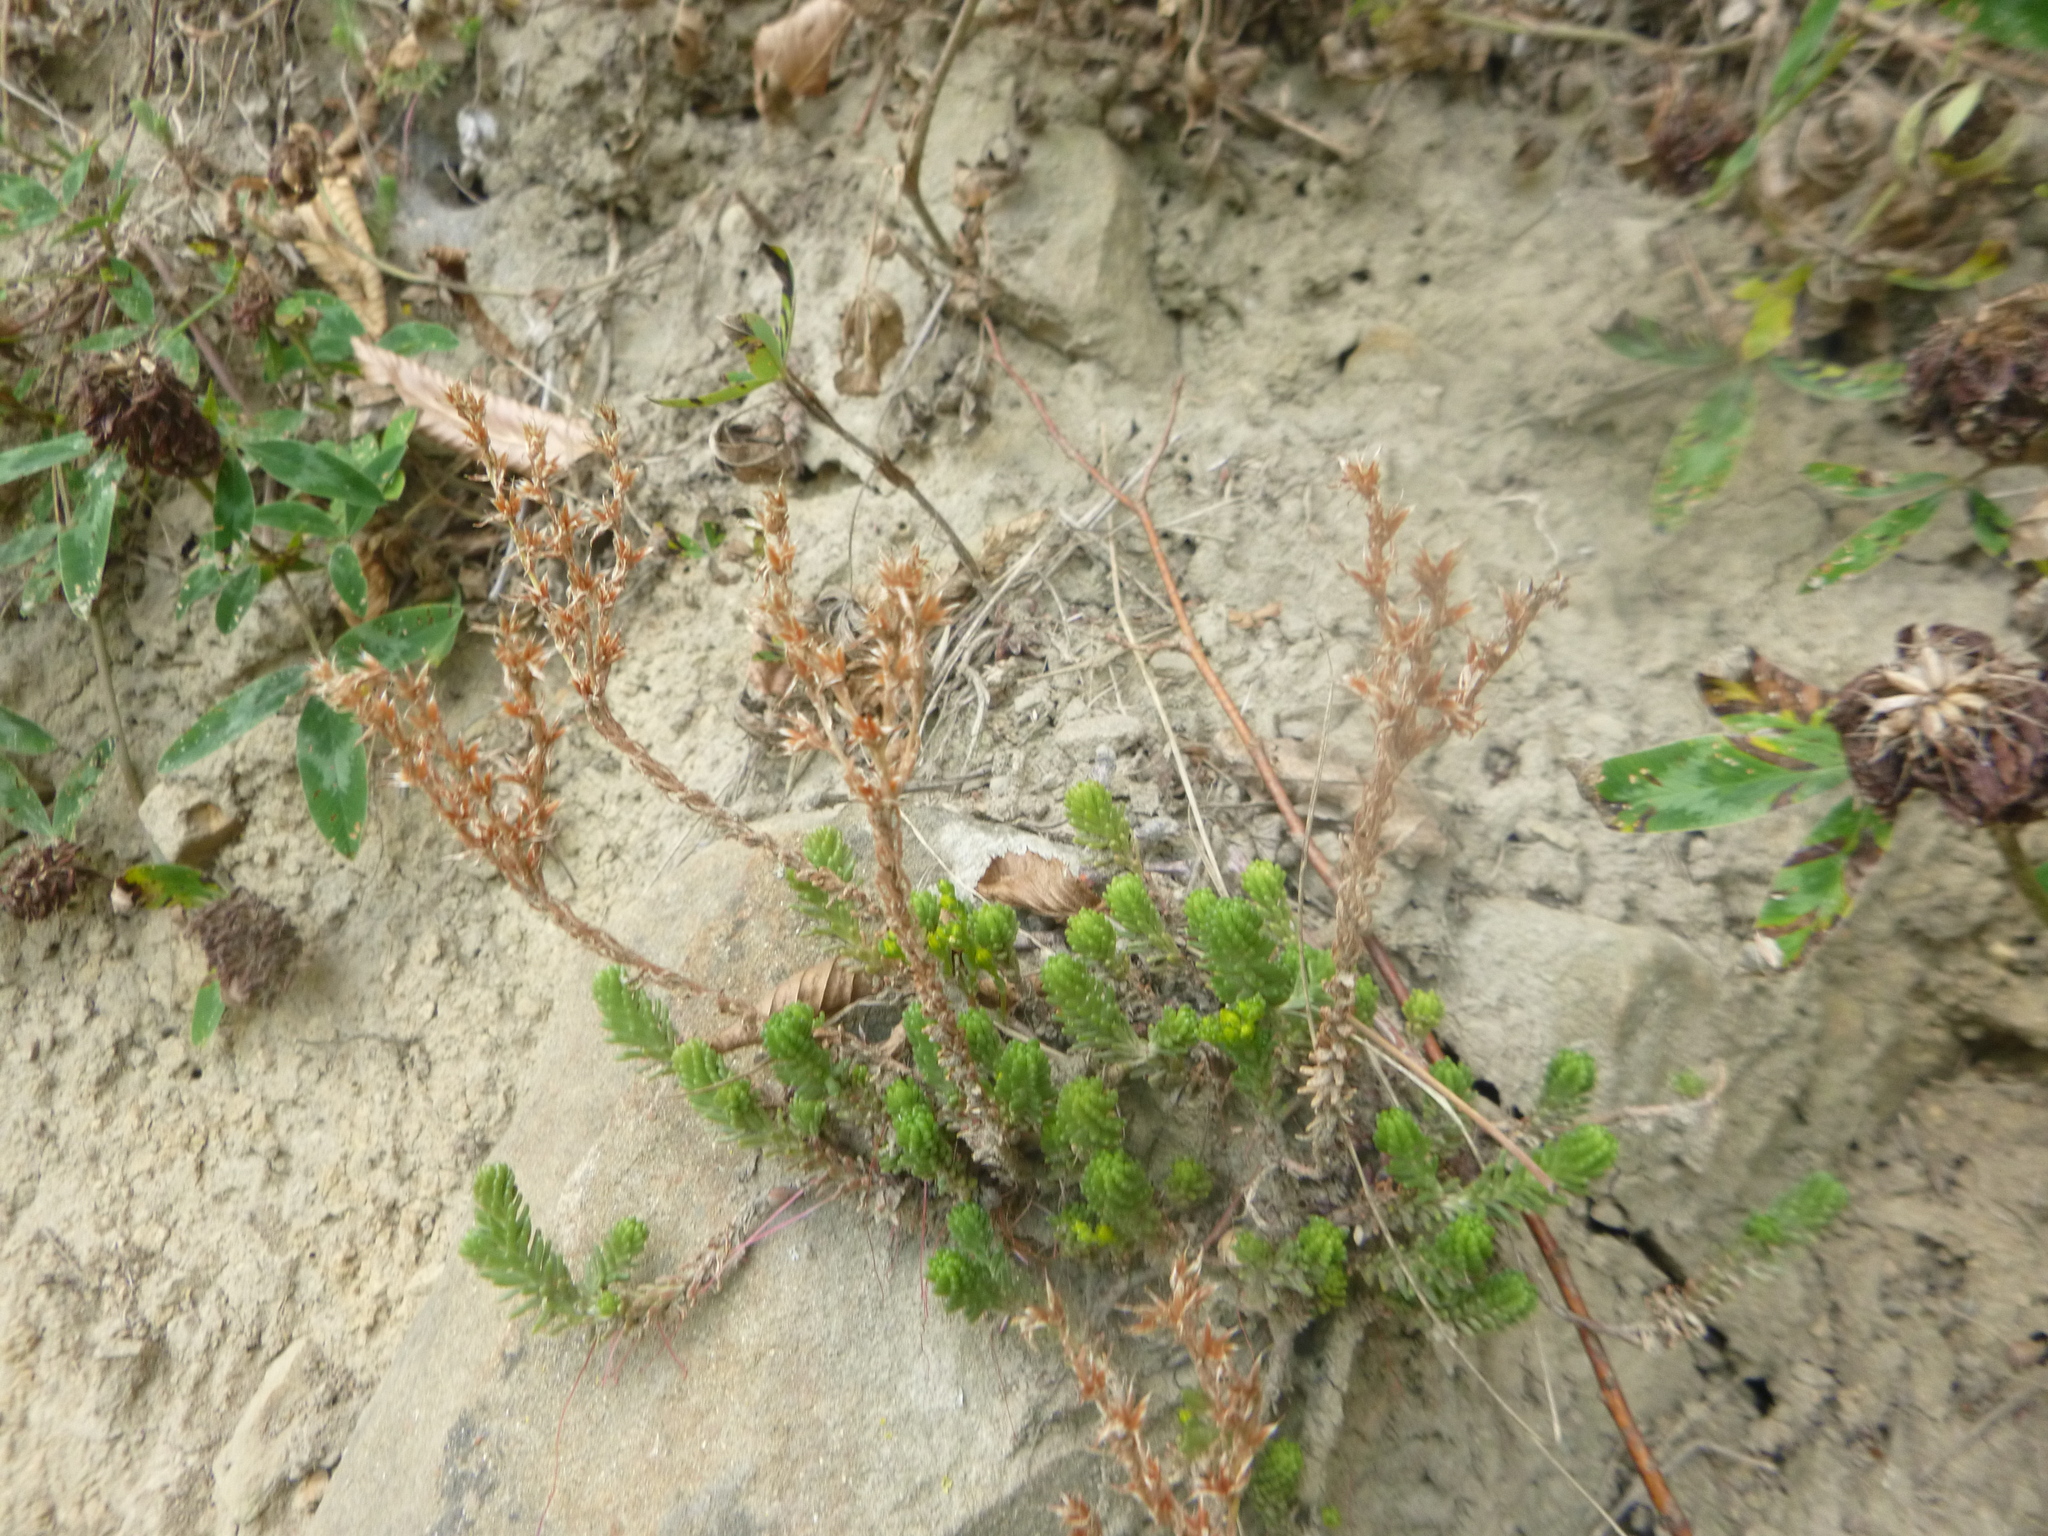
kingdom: Plantae
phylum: Tracheophyta
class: Magnoliopsida
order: Saxifragales
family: Crassulaceae
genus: Sedum
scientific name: Sedum sexangulare
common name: Tasteless stonecrop
